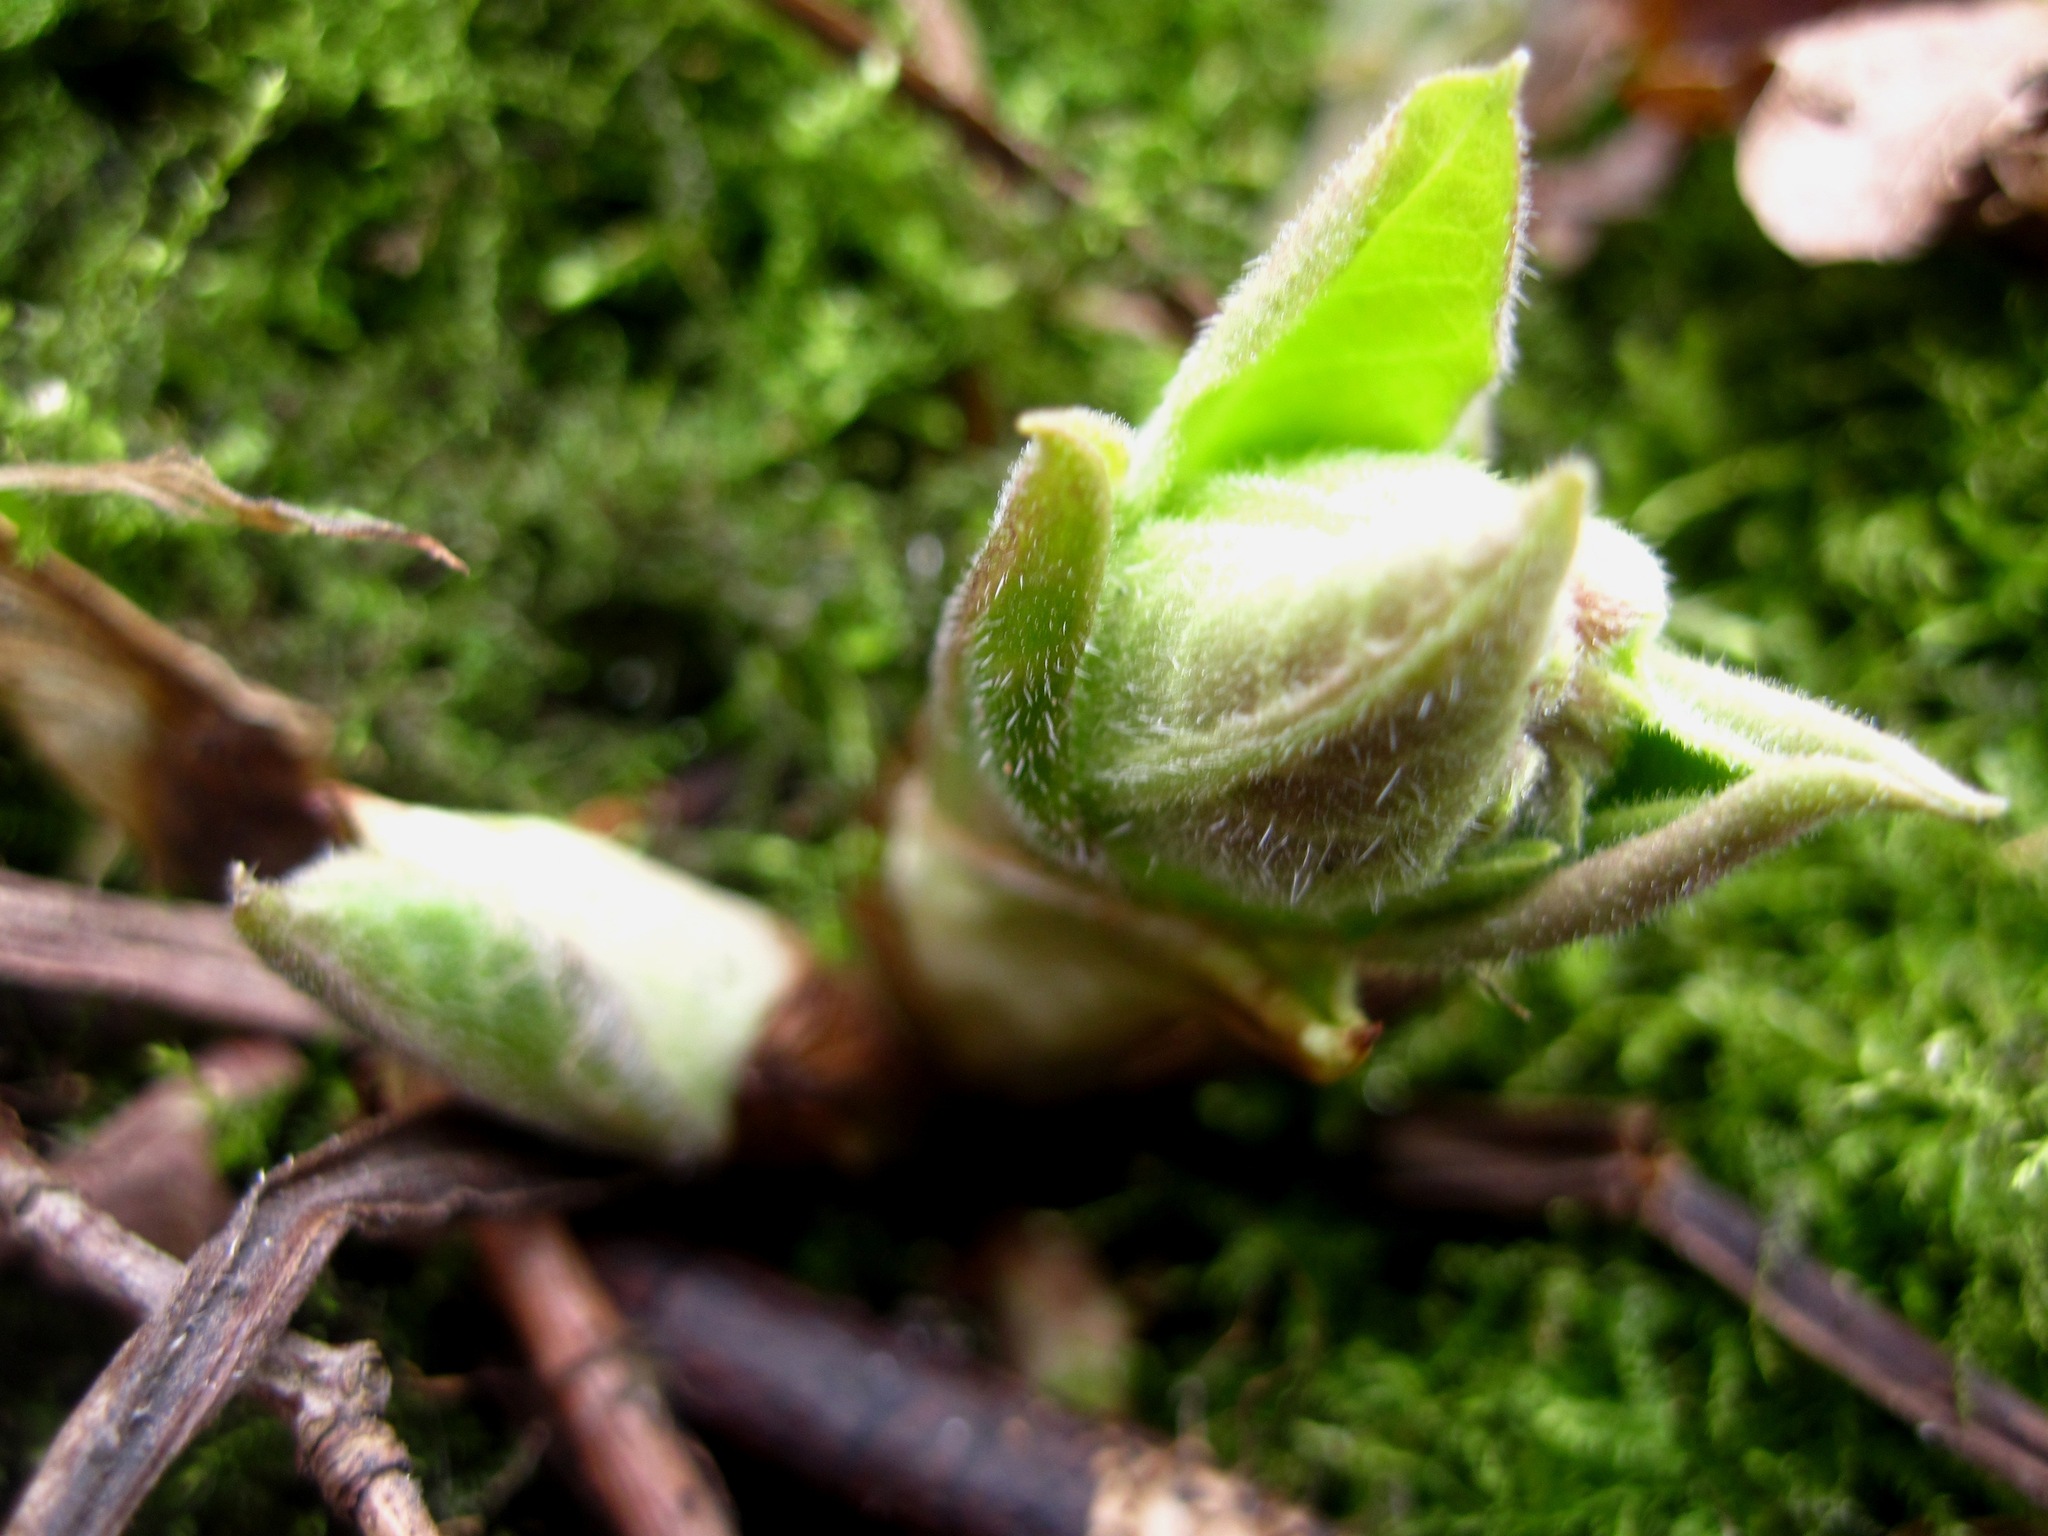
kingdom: Plantae
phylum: Tracheophyta
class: Magnoliopsida
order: Piperales
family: Aristolochiaceae
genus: Asarum
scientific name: Asarum europaeum
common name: Asarabacca
